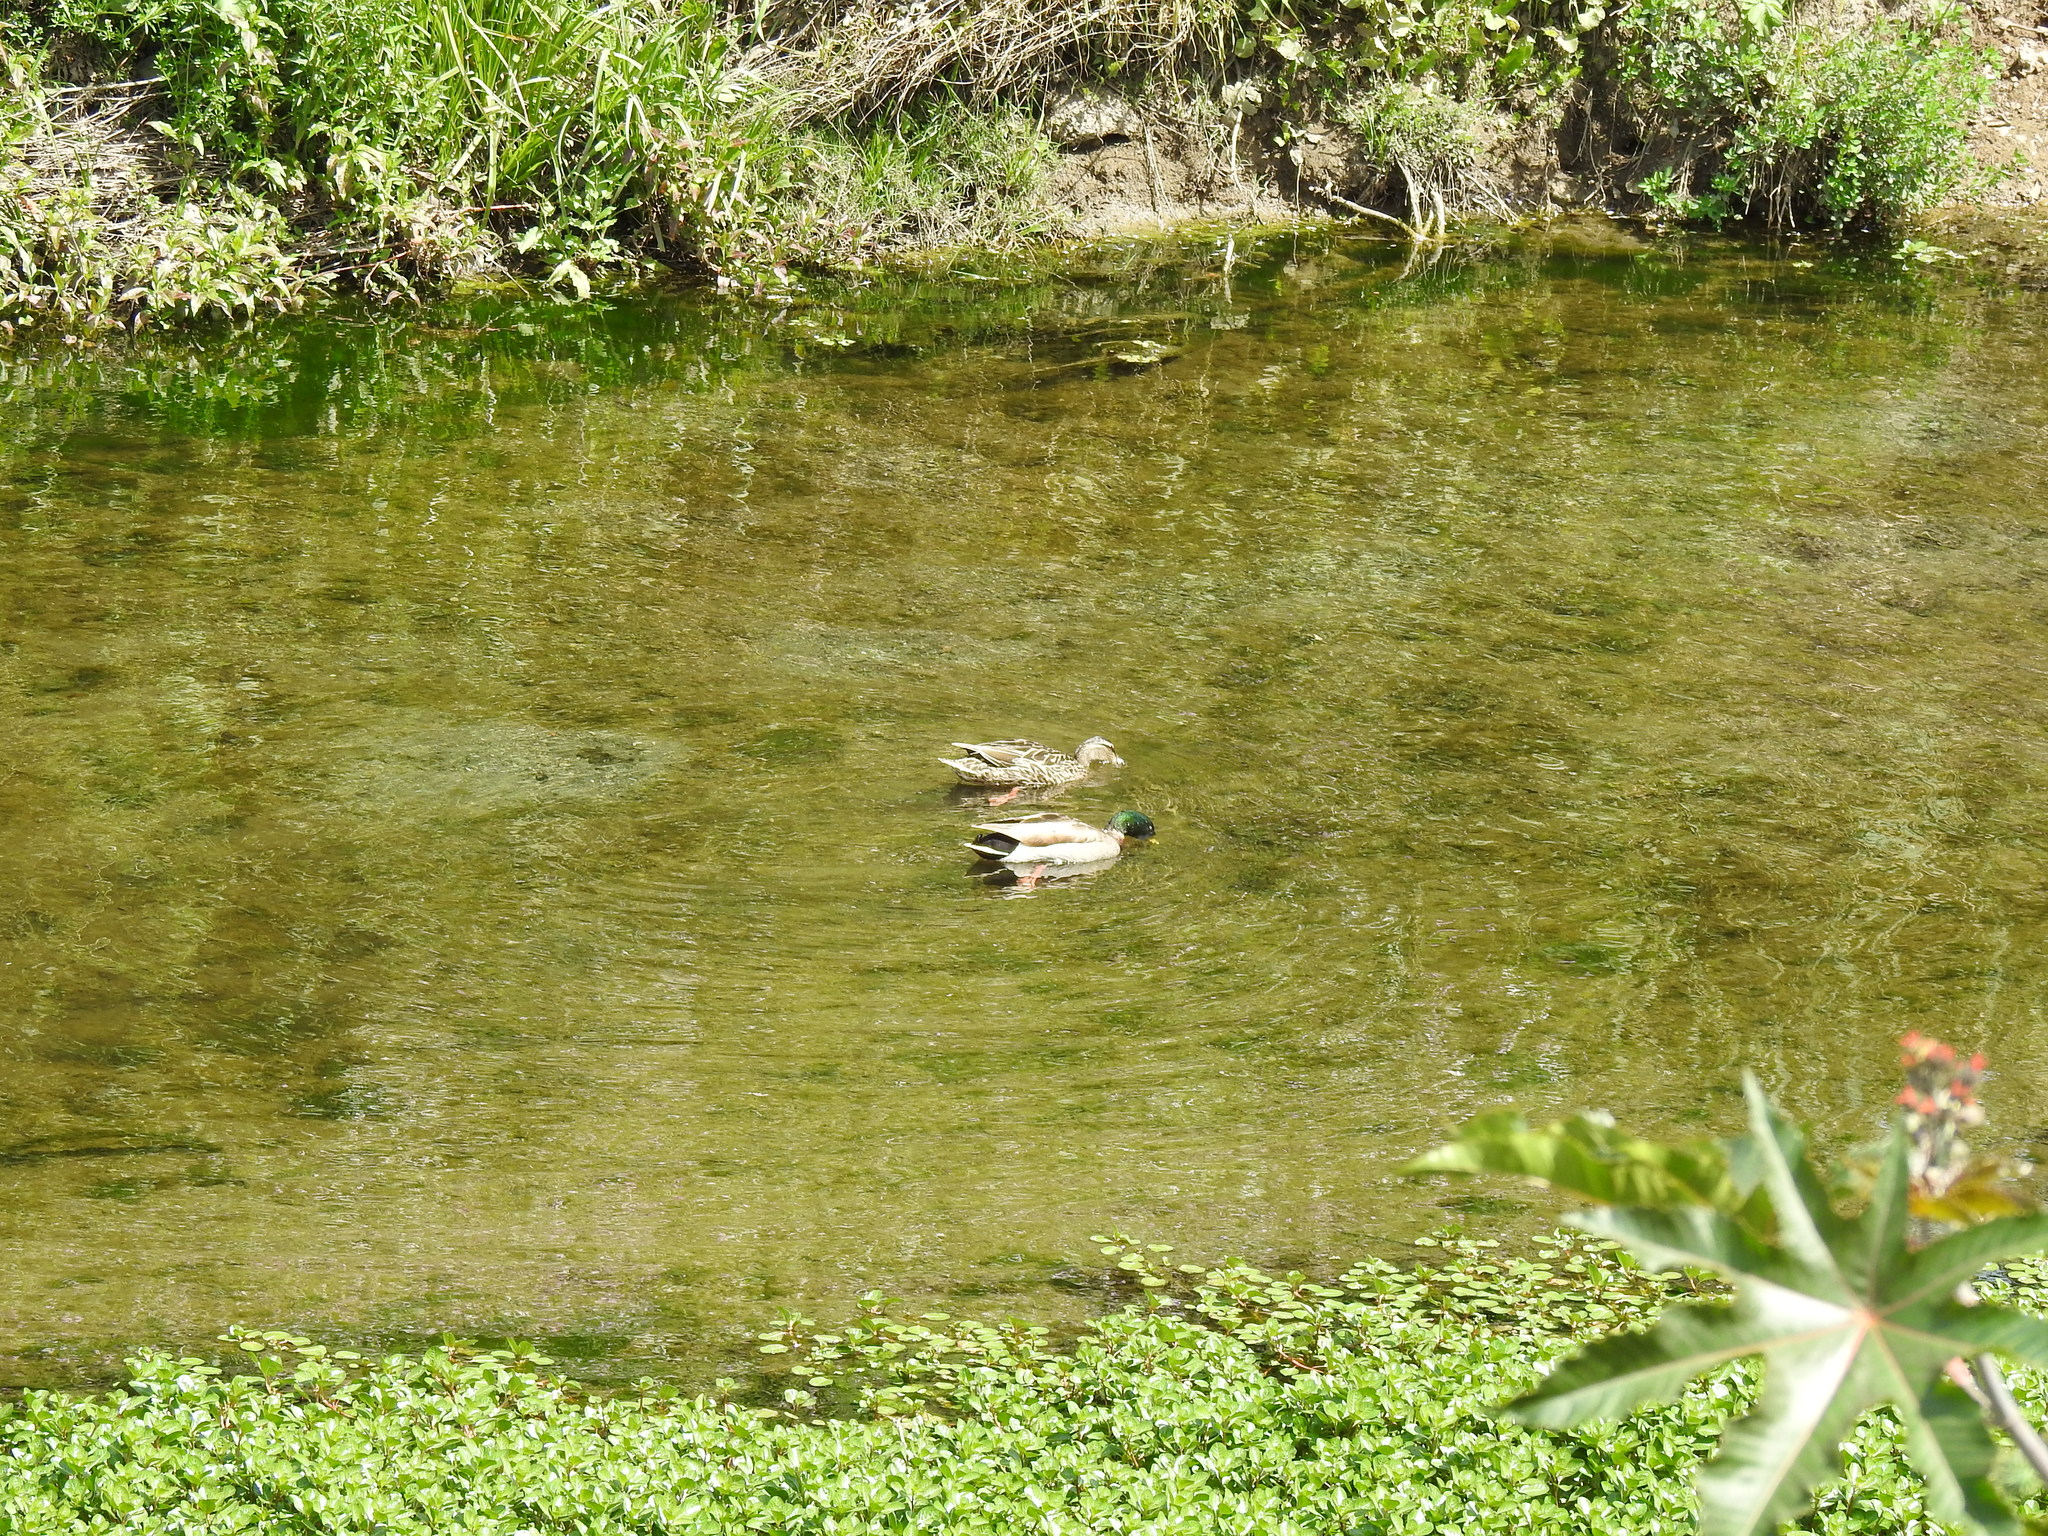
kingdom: Animalia
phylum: Chordata
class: Aves
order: Anseriformes
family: Anatidae
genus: Anas
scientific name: Anas platyrhynchos
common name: Mallard
